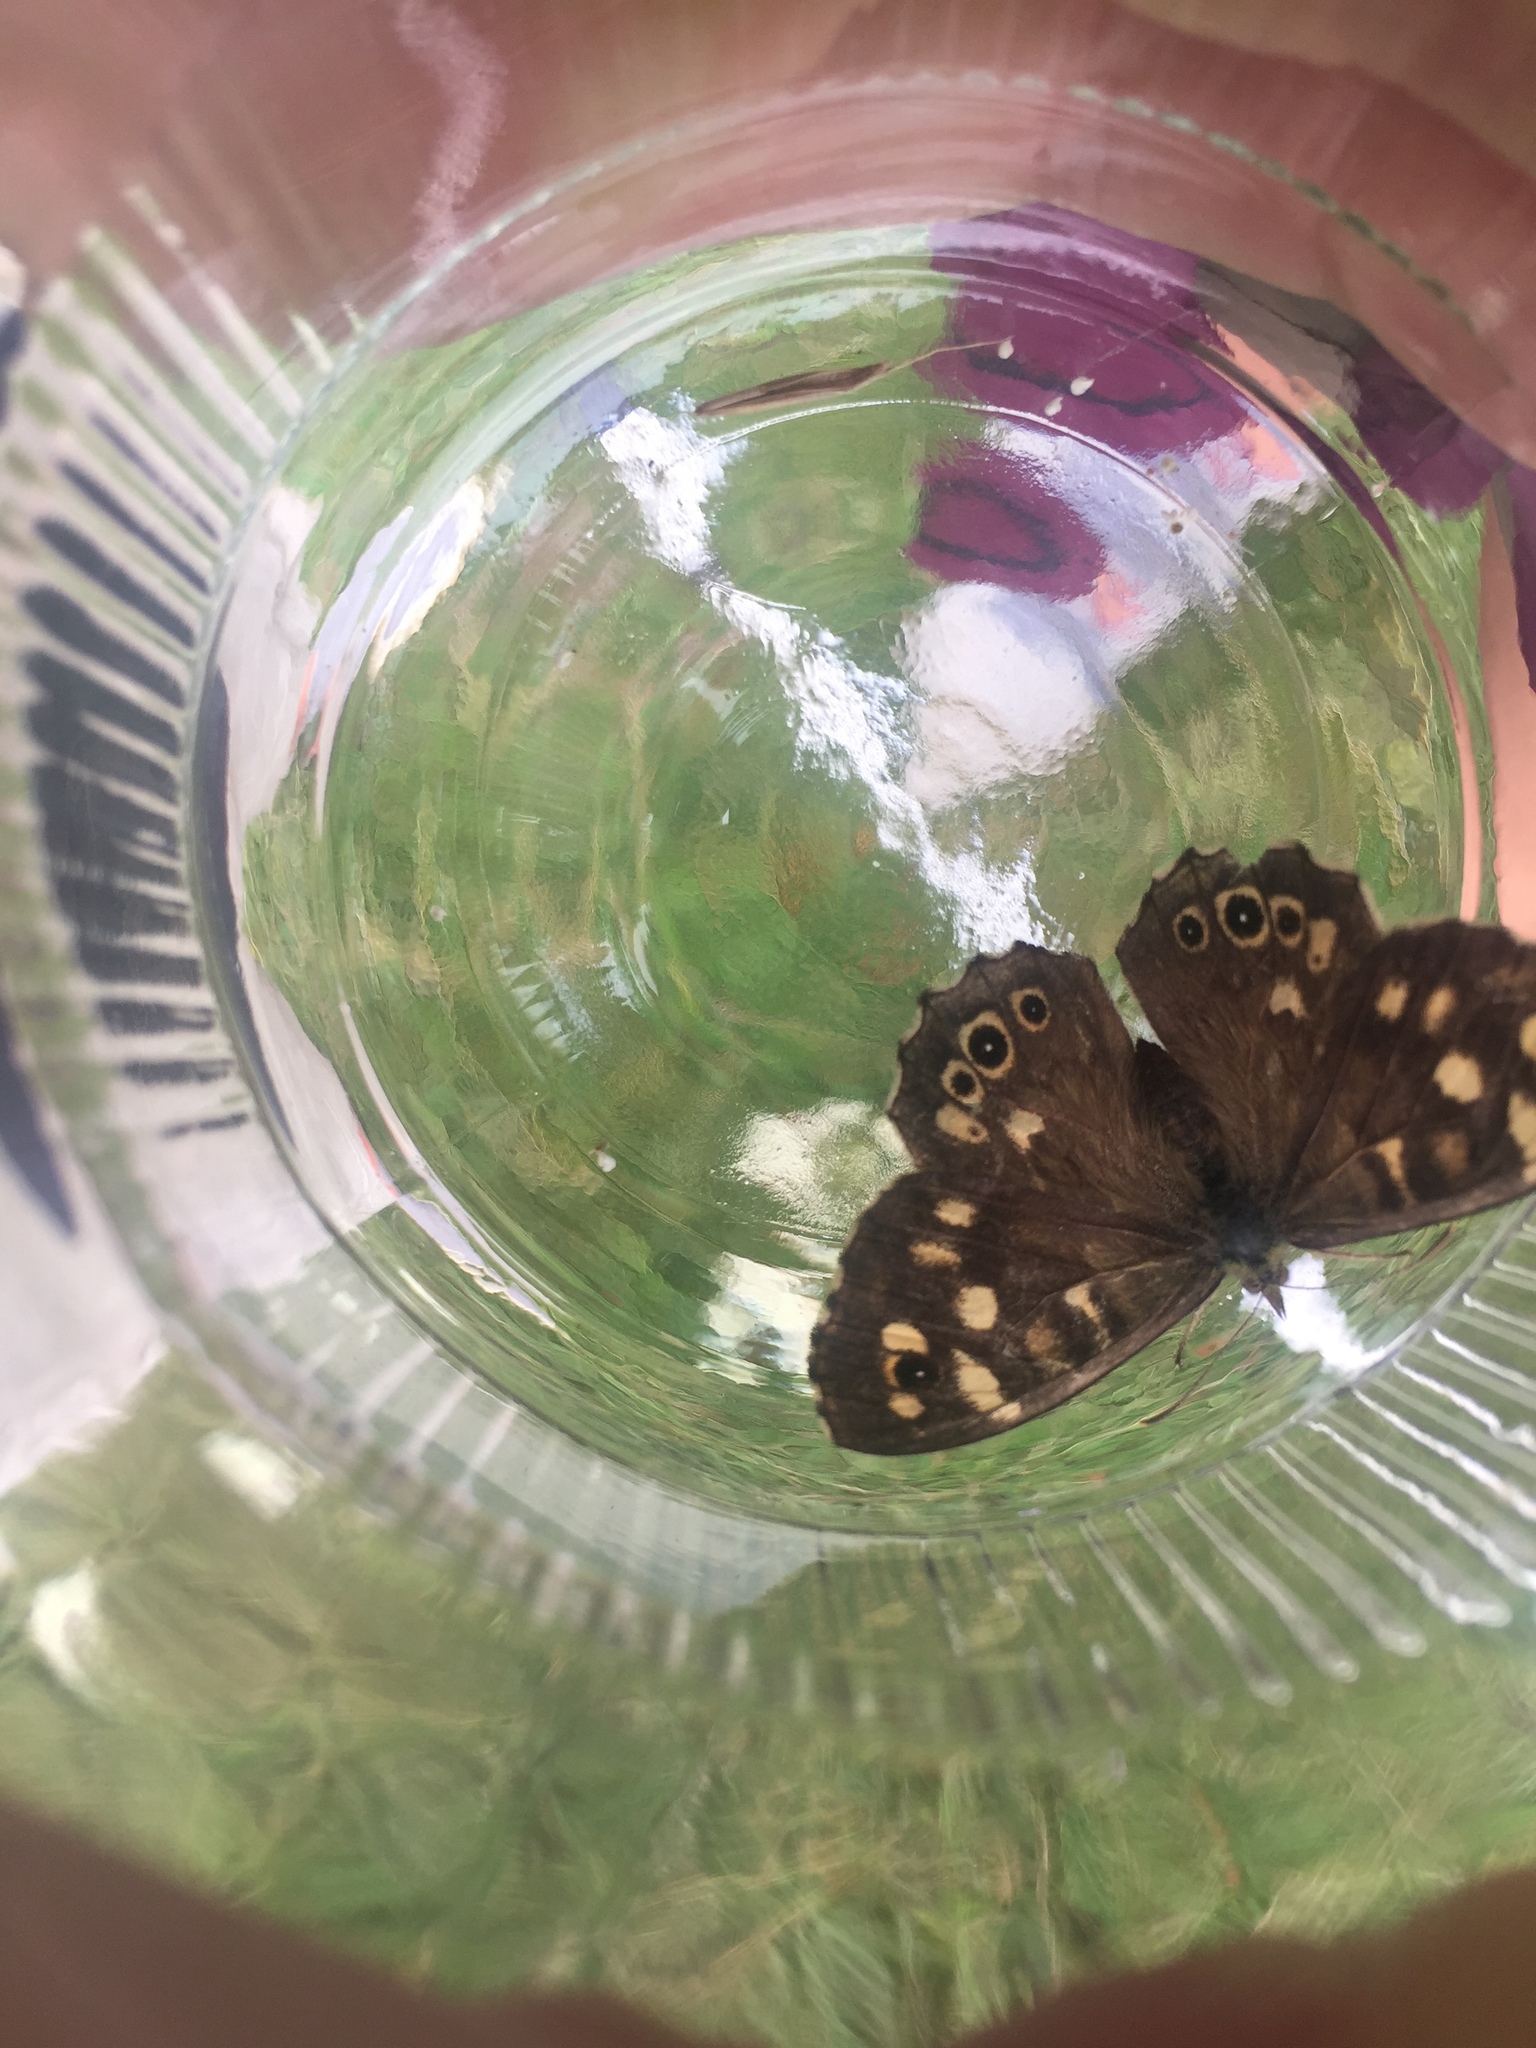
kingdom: Animalia
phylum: Arthropoda
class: Insecta
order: Lepidoptera
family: Nymphalidae
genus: Pararge
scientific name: Pararge aegeria
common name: Speckled wood
